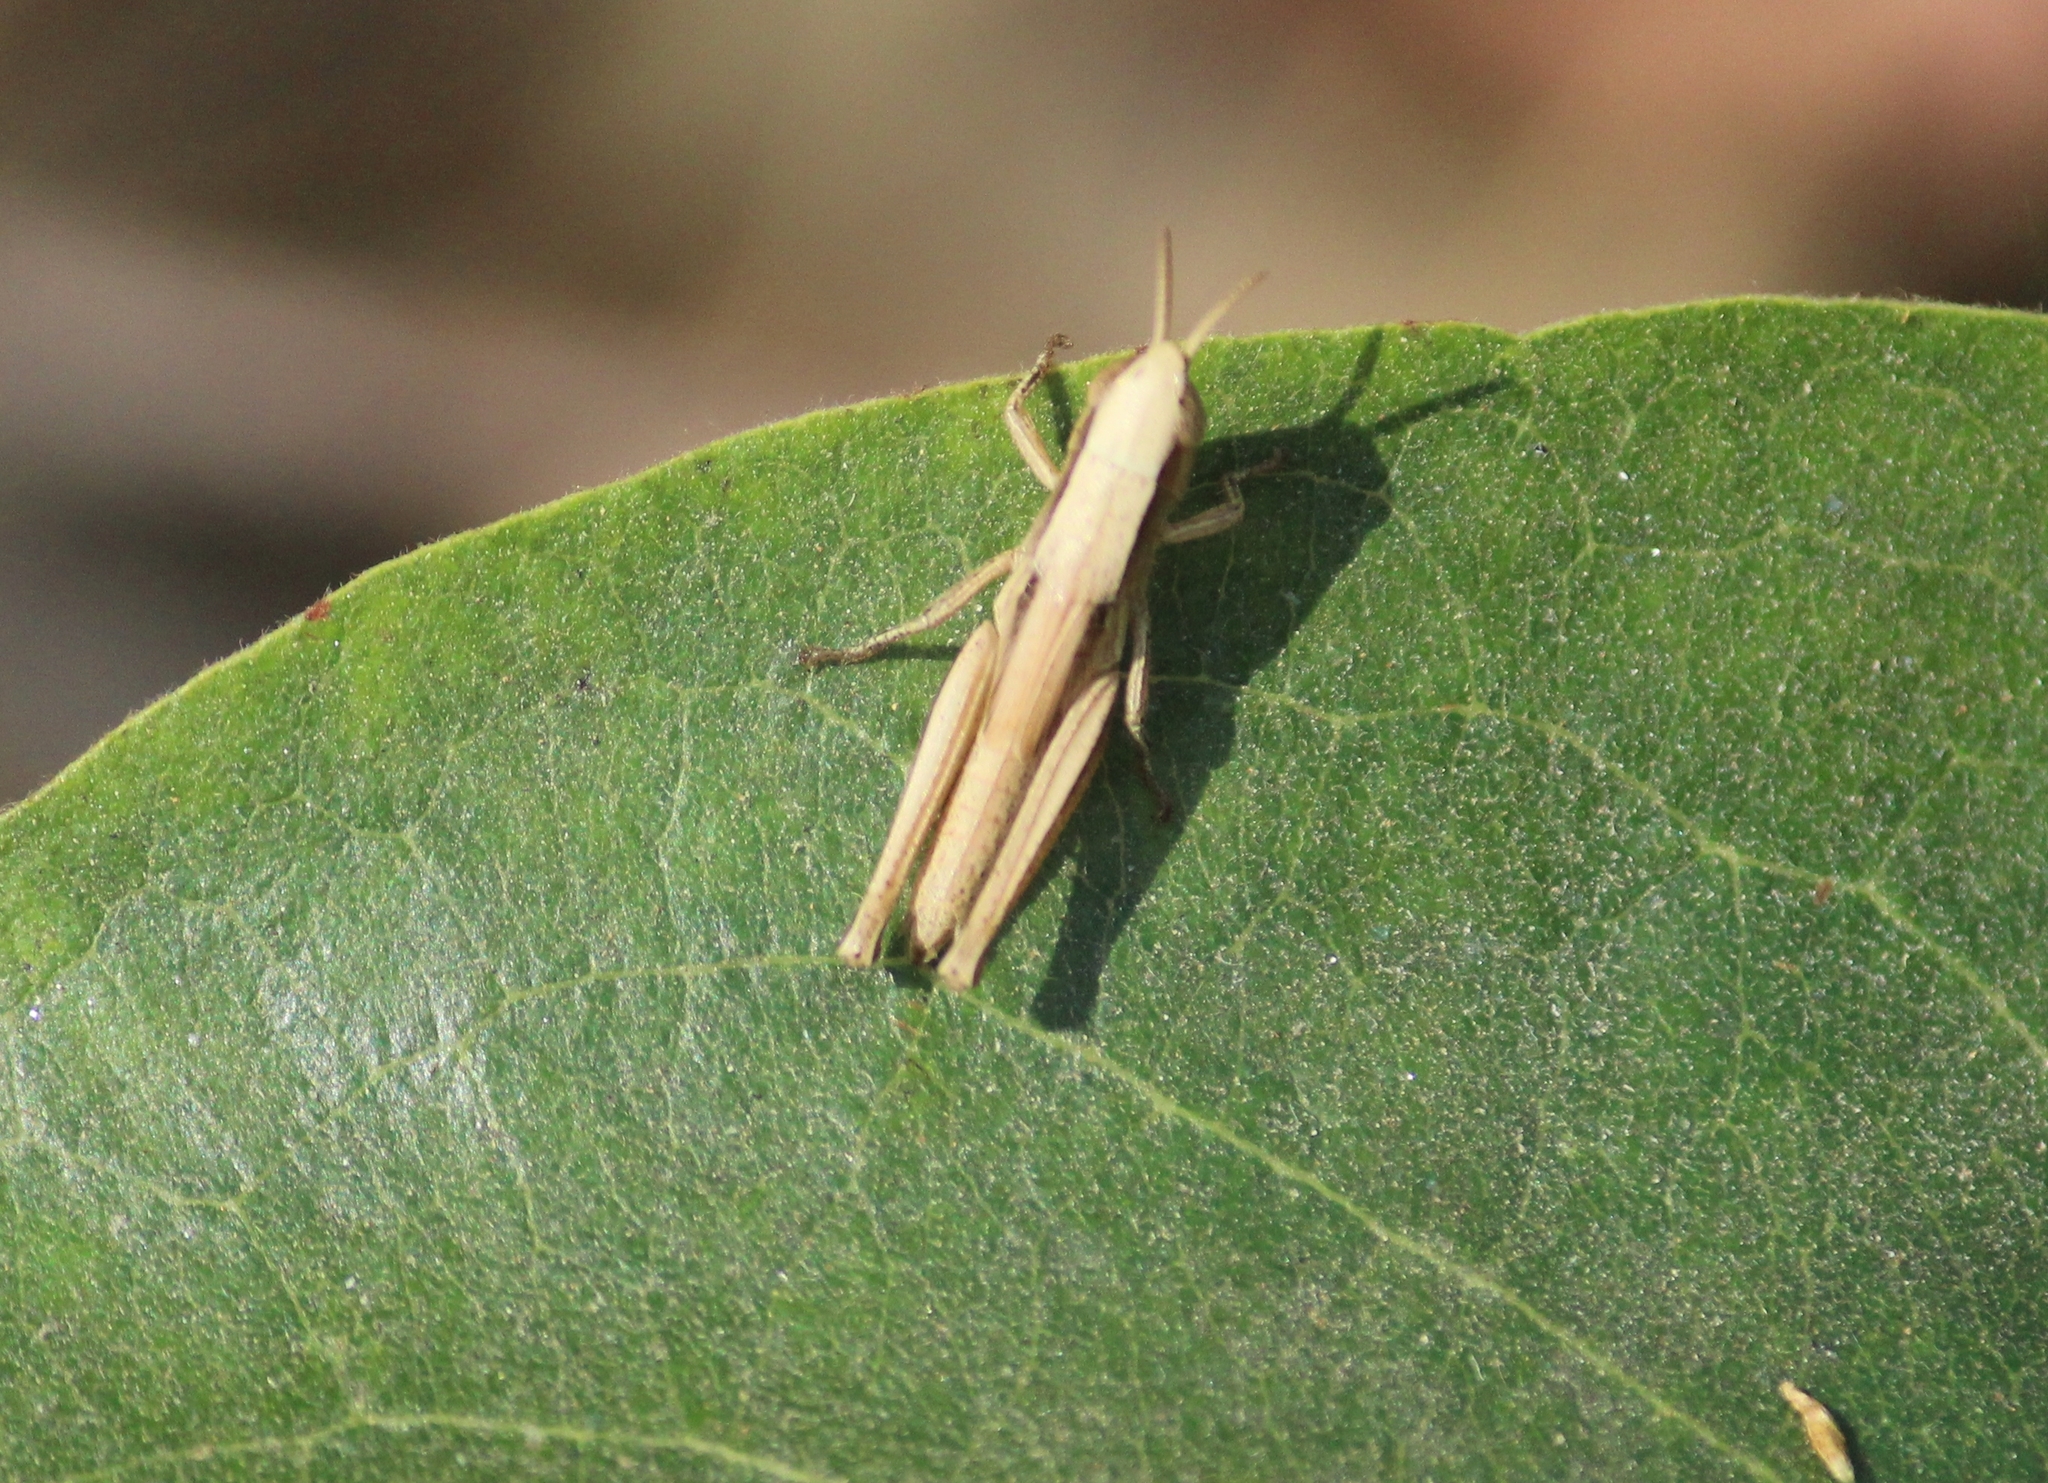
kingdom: Animalia
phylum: Arthropoda
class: Insecta
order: Orthoptera
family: Acrididae
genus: Spathosternum
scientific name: Spathosternum prasiniferum
